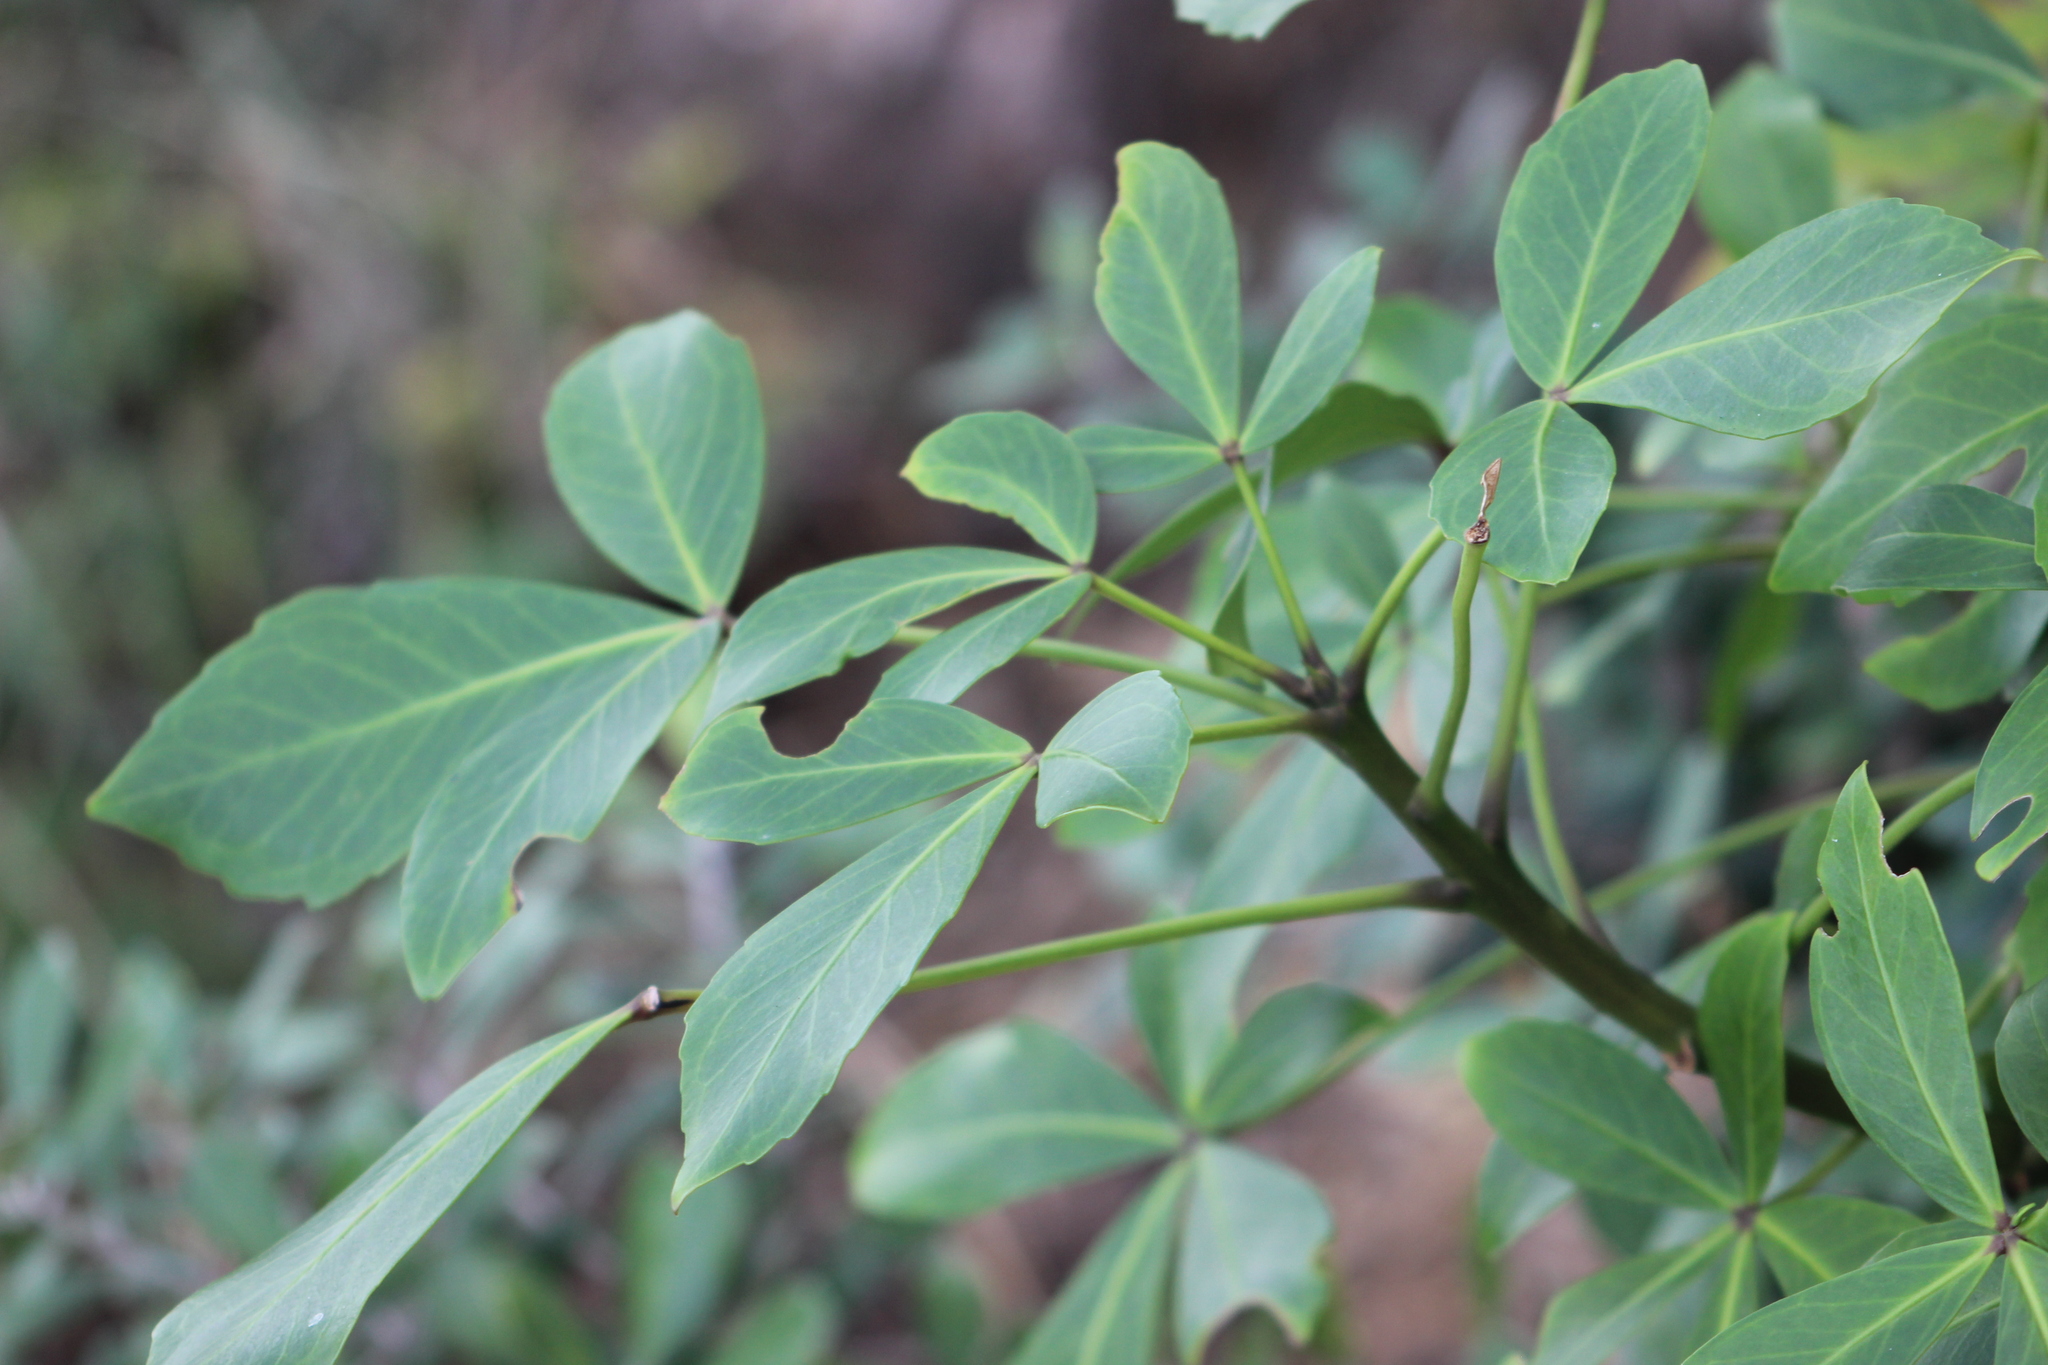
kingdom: Plantae
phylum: Tracheophyta
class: Magnoliopsida
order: Apiales
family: Araliaceae
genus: Pseudopanax
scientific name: Pseudopanax lessonii
